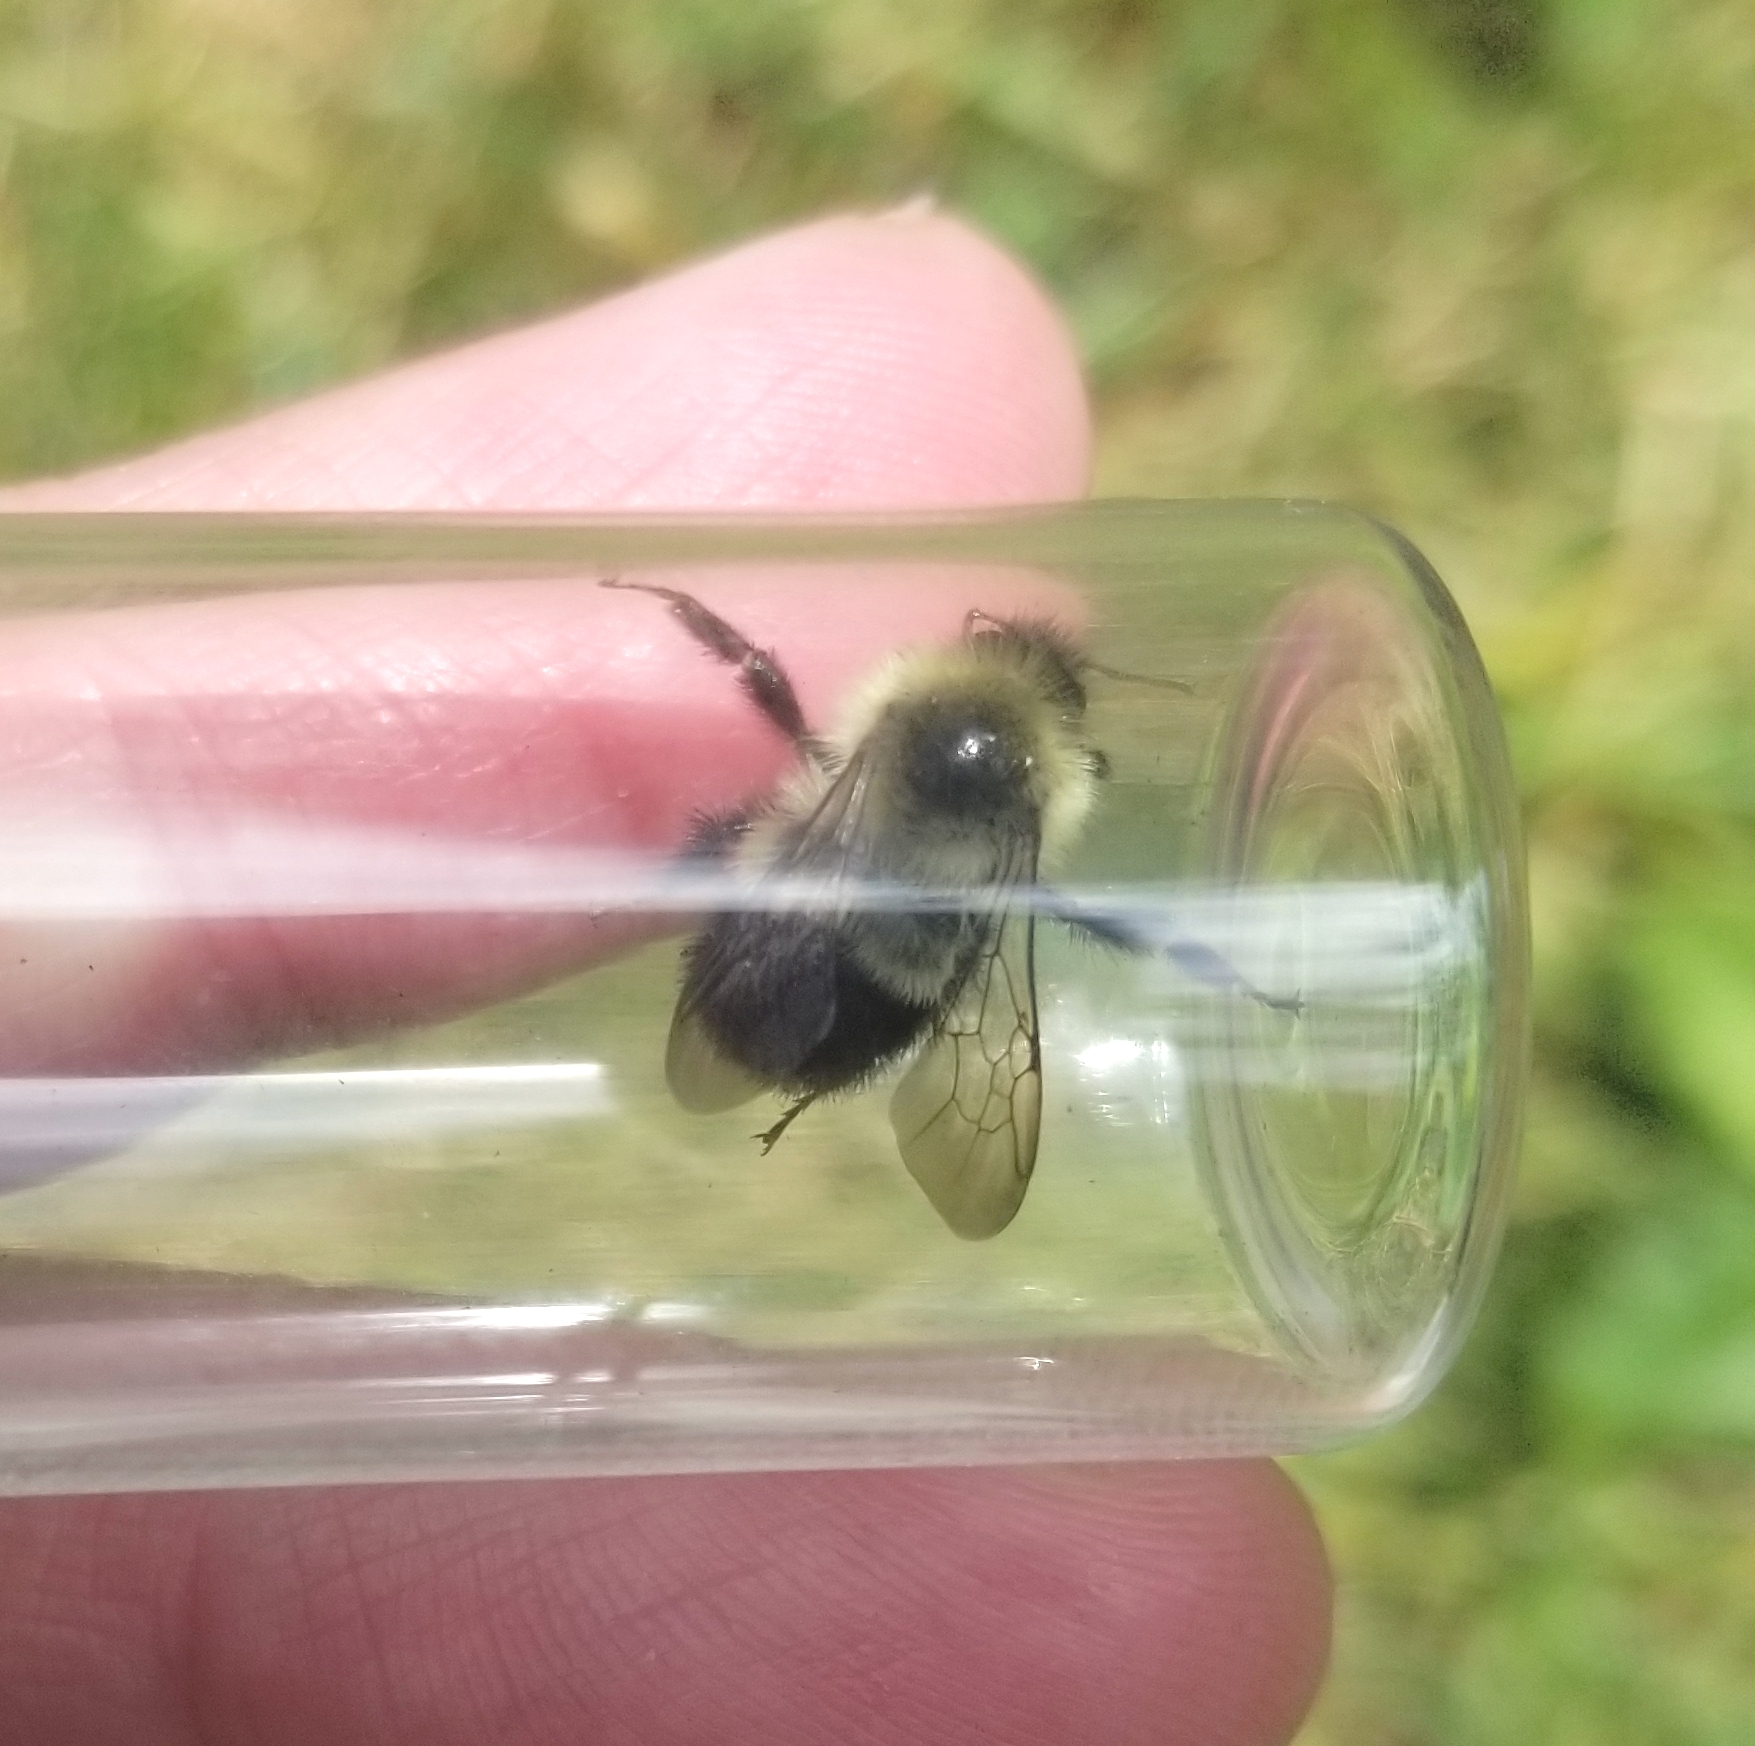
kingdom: Animalia
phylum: Arthropoda
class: Insecta
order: Hymenoptera
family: Apidae
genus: Bombus
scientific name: Bombus vagans
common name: Half-black bumble bee
